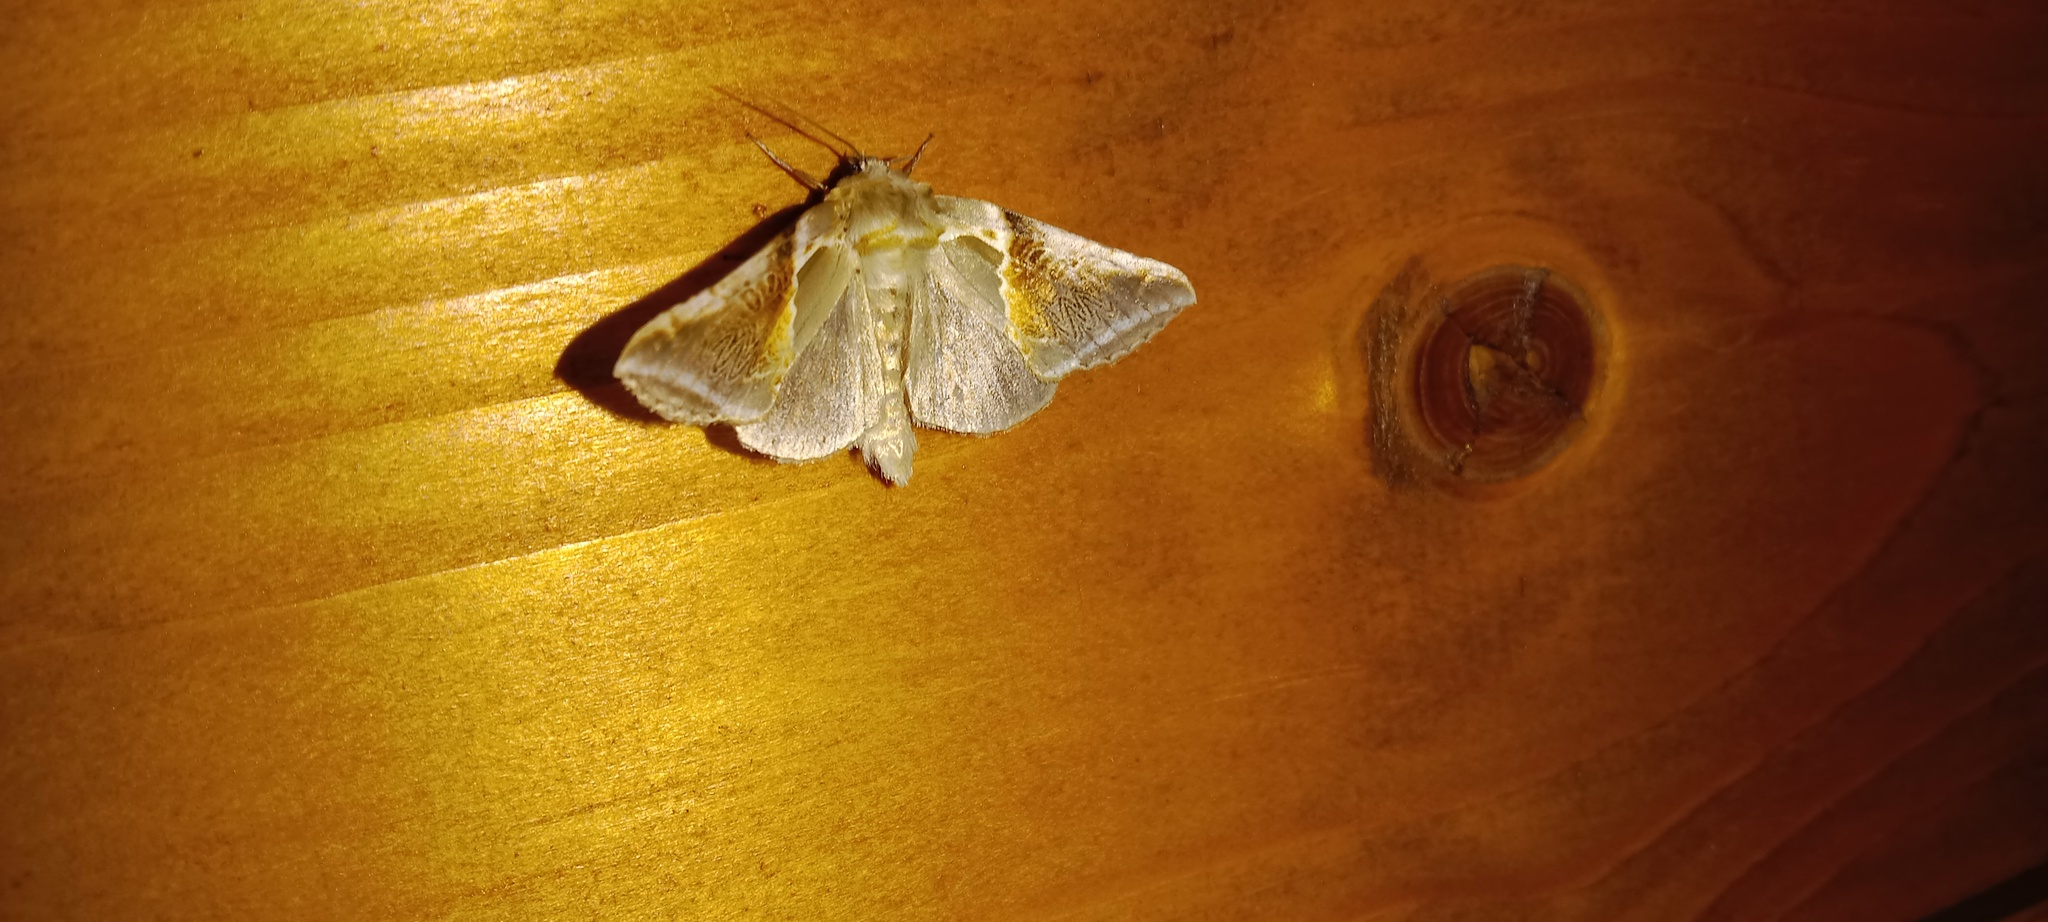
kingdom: Animalia
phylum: Arthropoda
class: Insecta
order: Lepidoptera
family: Drepanidae
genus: Habrosyne
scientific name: Habrosyne pyritoides
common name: Buff arches
